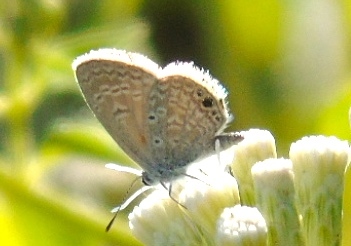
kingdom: Animalia
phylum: Arthropoda
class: Insecta
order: Lepidoptera
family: Lycaenidae
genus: Hemiargus
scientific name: Hemiargus ceraunus
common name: Ceraunus blue
